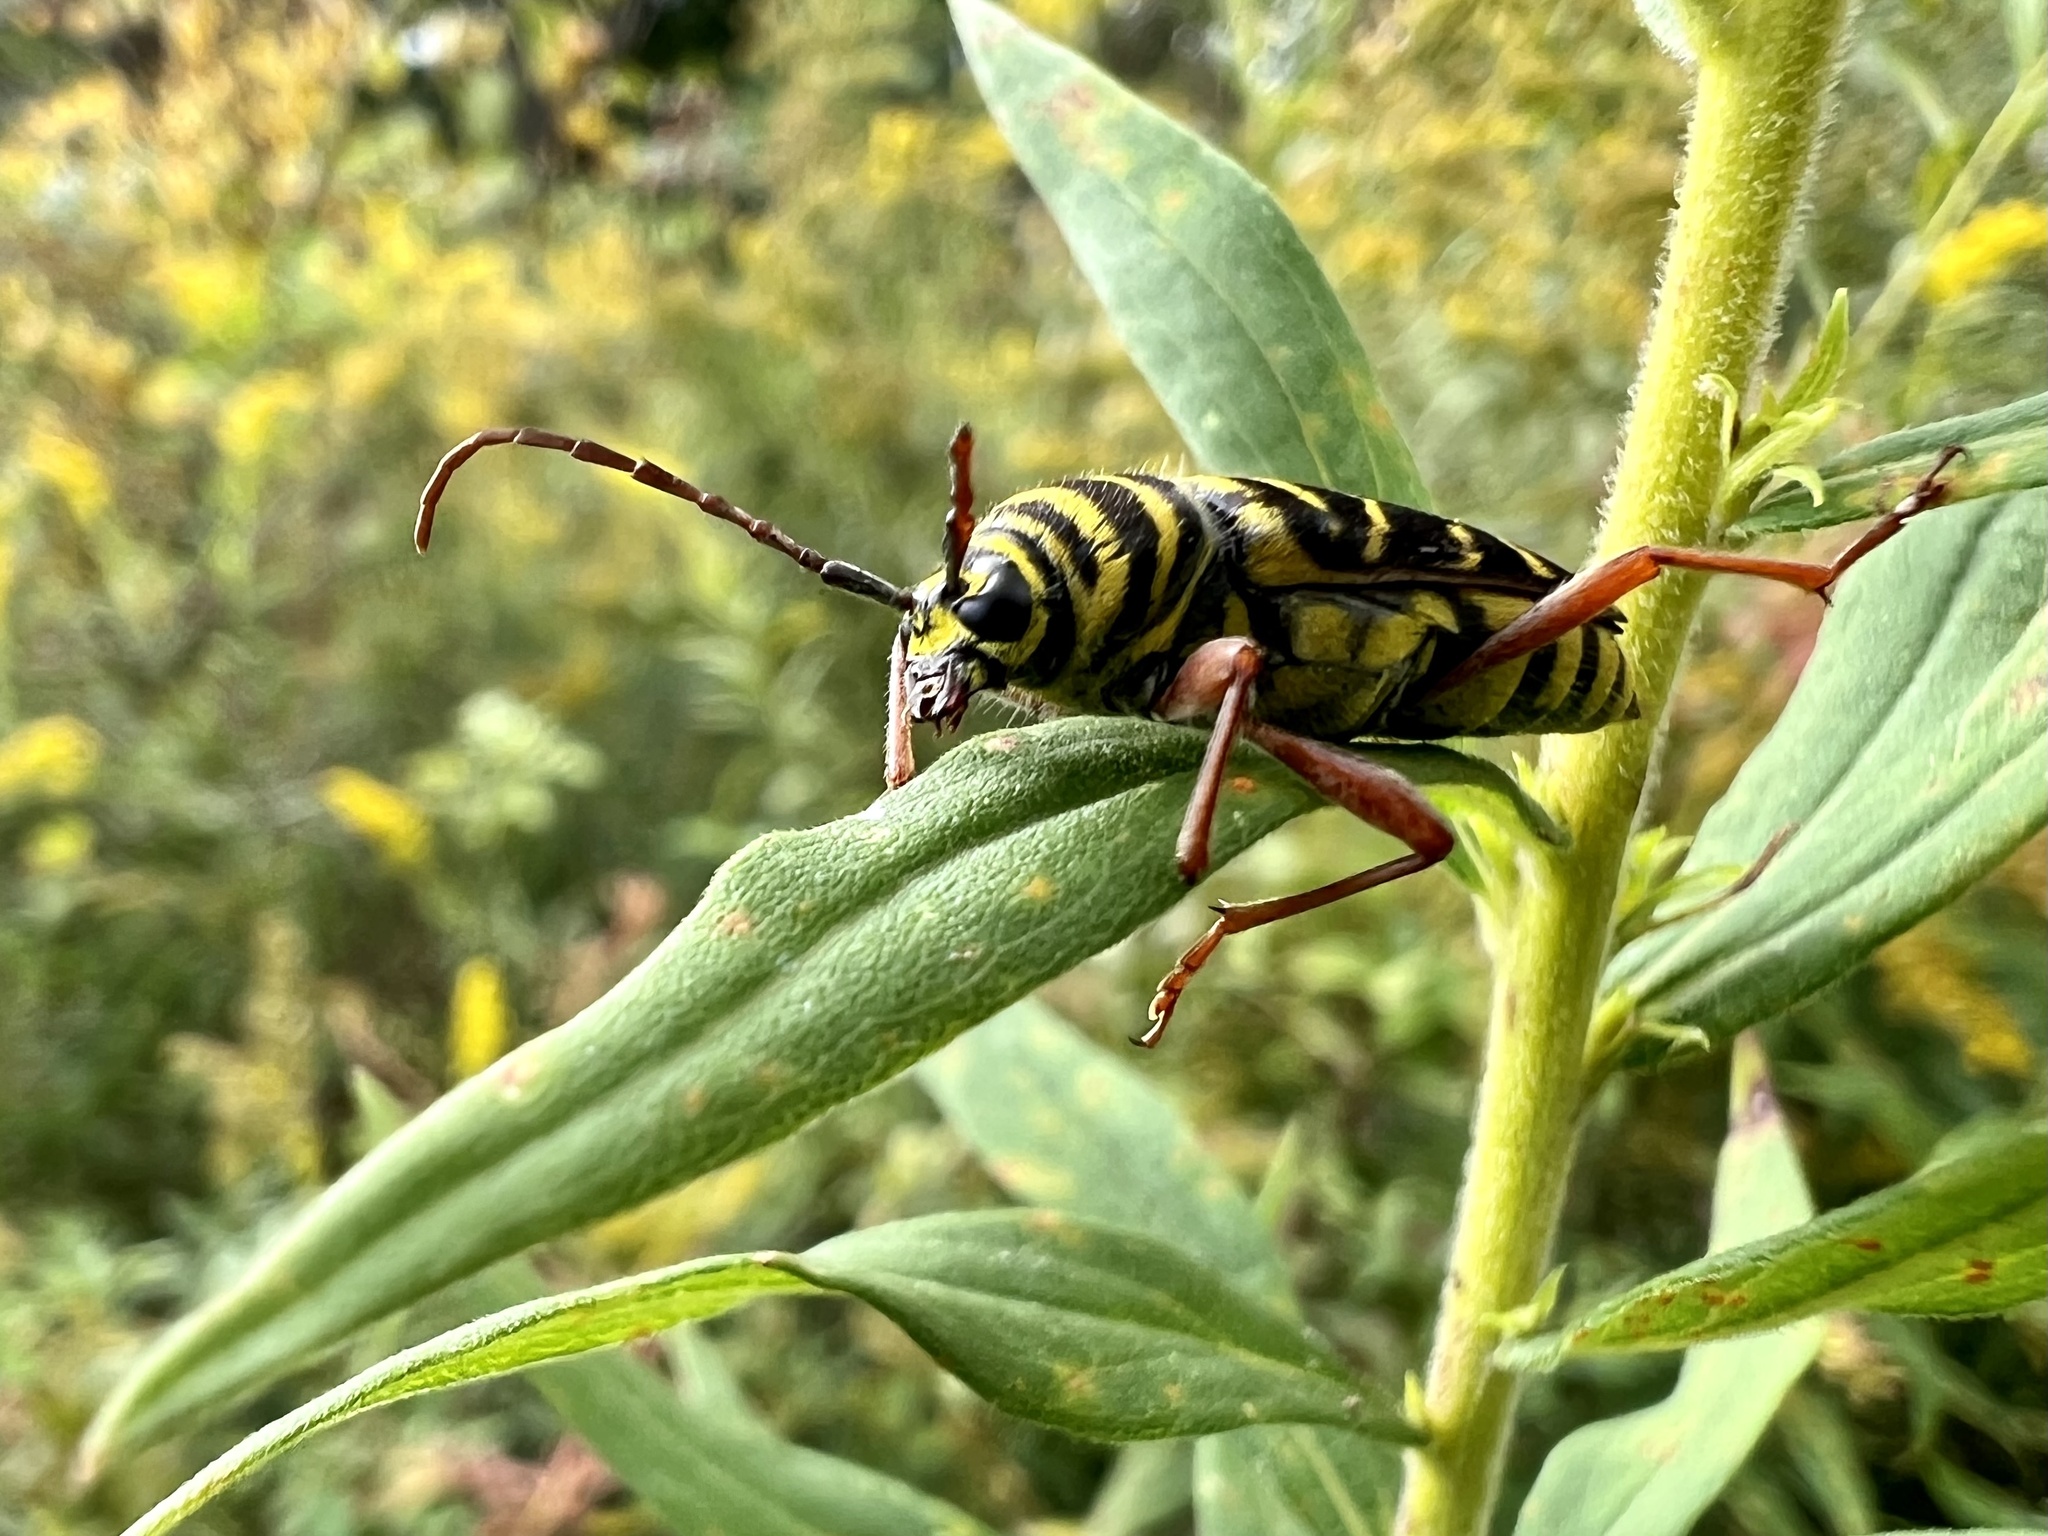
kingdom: Animalia
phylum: Arthropoda
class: Insecta
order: Coleoptera
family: Cerambycidae
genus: Megacyllene
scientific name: Megacyllene robiniae
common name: Locust borer
